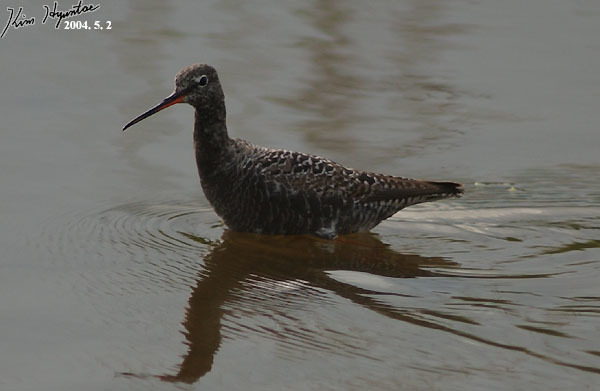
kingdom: Animalia
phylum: Chordata
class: Aves
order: Charadriiformes
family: Scolopacidae
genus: Tringa
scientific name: Tringa erythropus
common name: Spotted redshank
